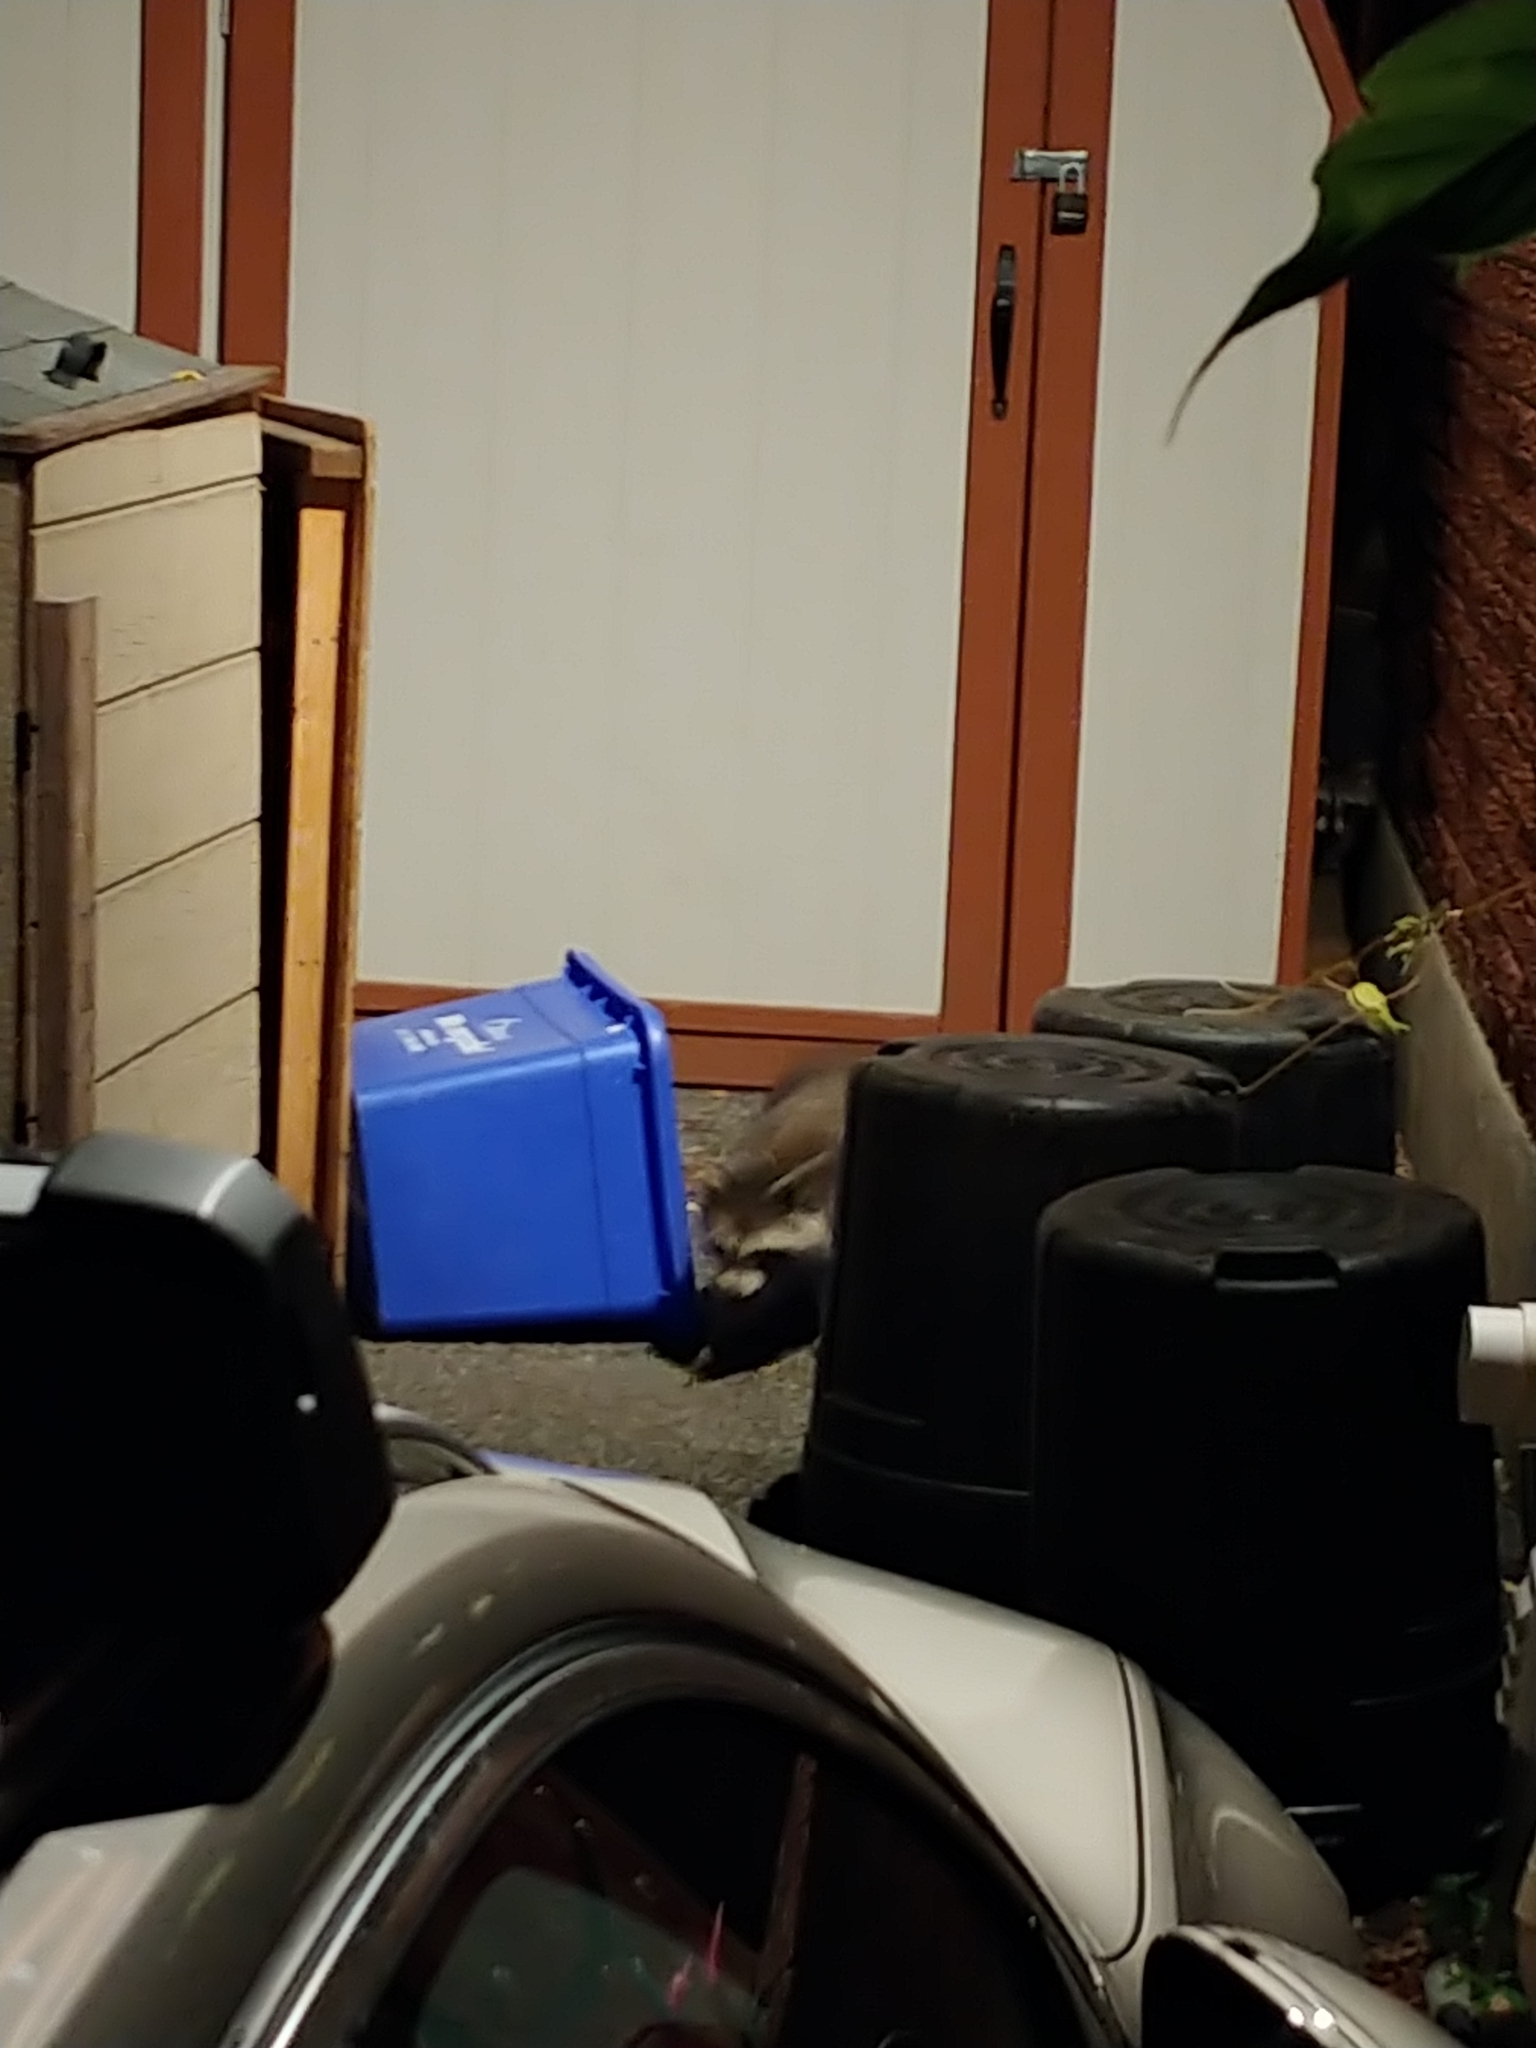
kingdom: Animalia
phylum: Chordata
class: Mammalia
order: Carnivora
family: Procyonidae
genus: Procyon
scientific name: Procyon lotor
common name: Raccoon
